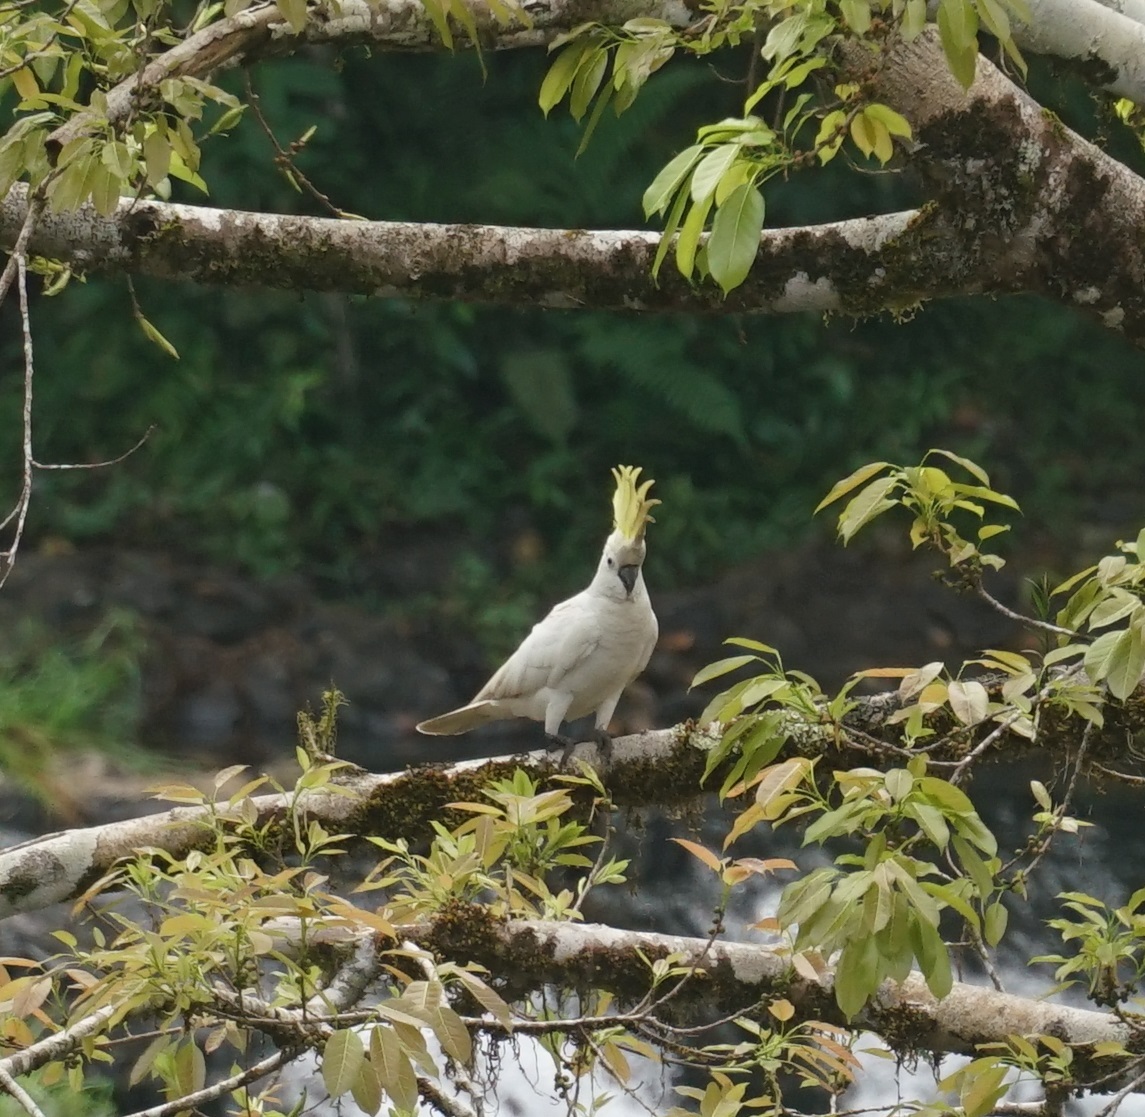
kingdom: Animalia
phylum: Chordata
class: Aves
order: Psittaciformes
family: Psittacidae
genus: Cacatua
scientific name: Cacatua galerita
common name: Sulphur-crested cockatoo
